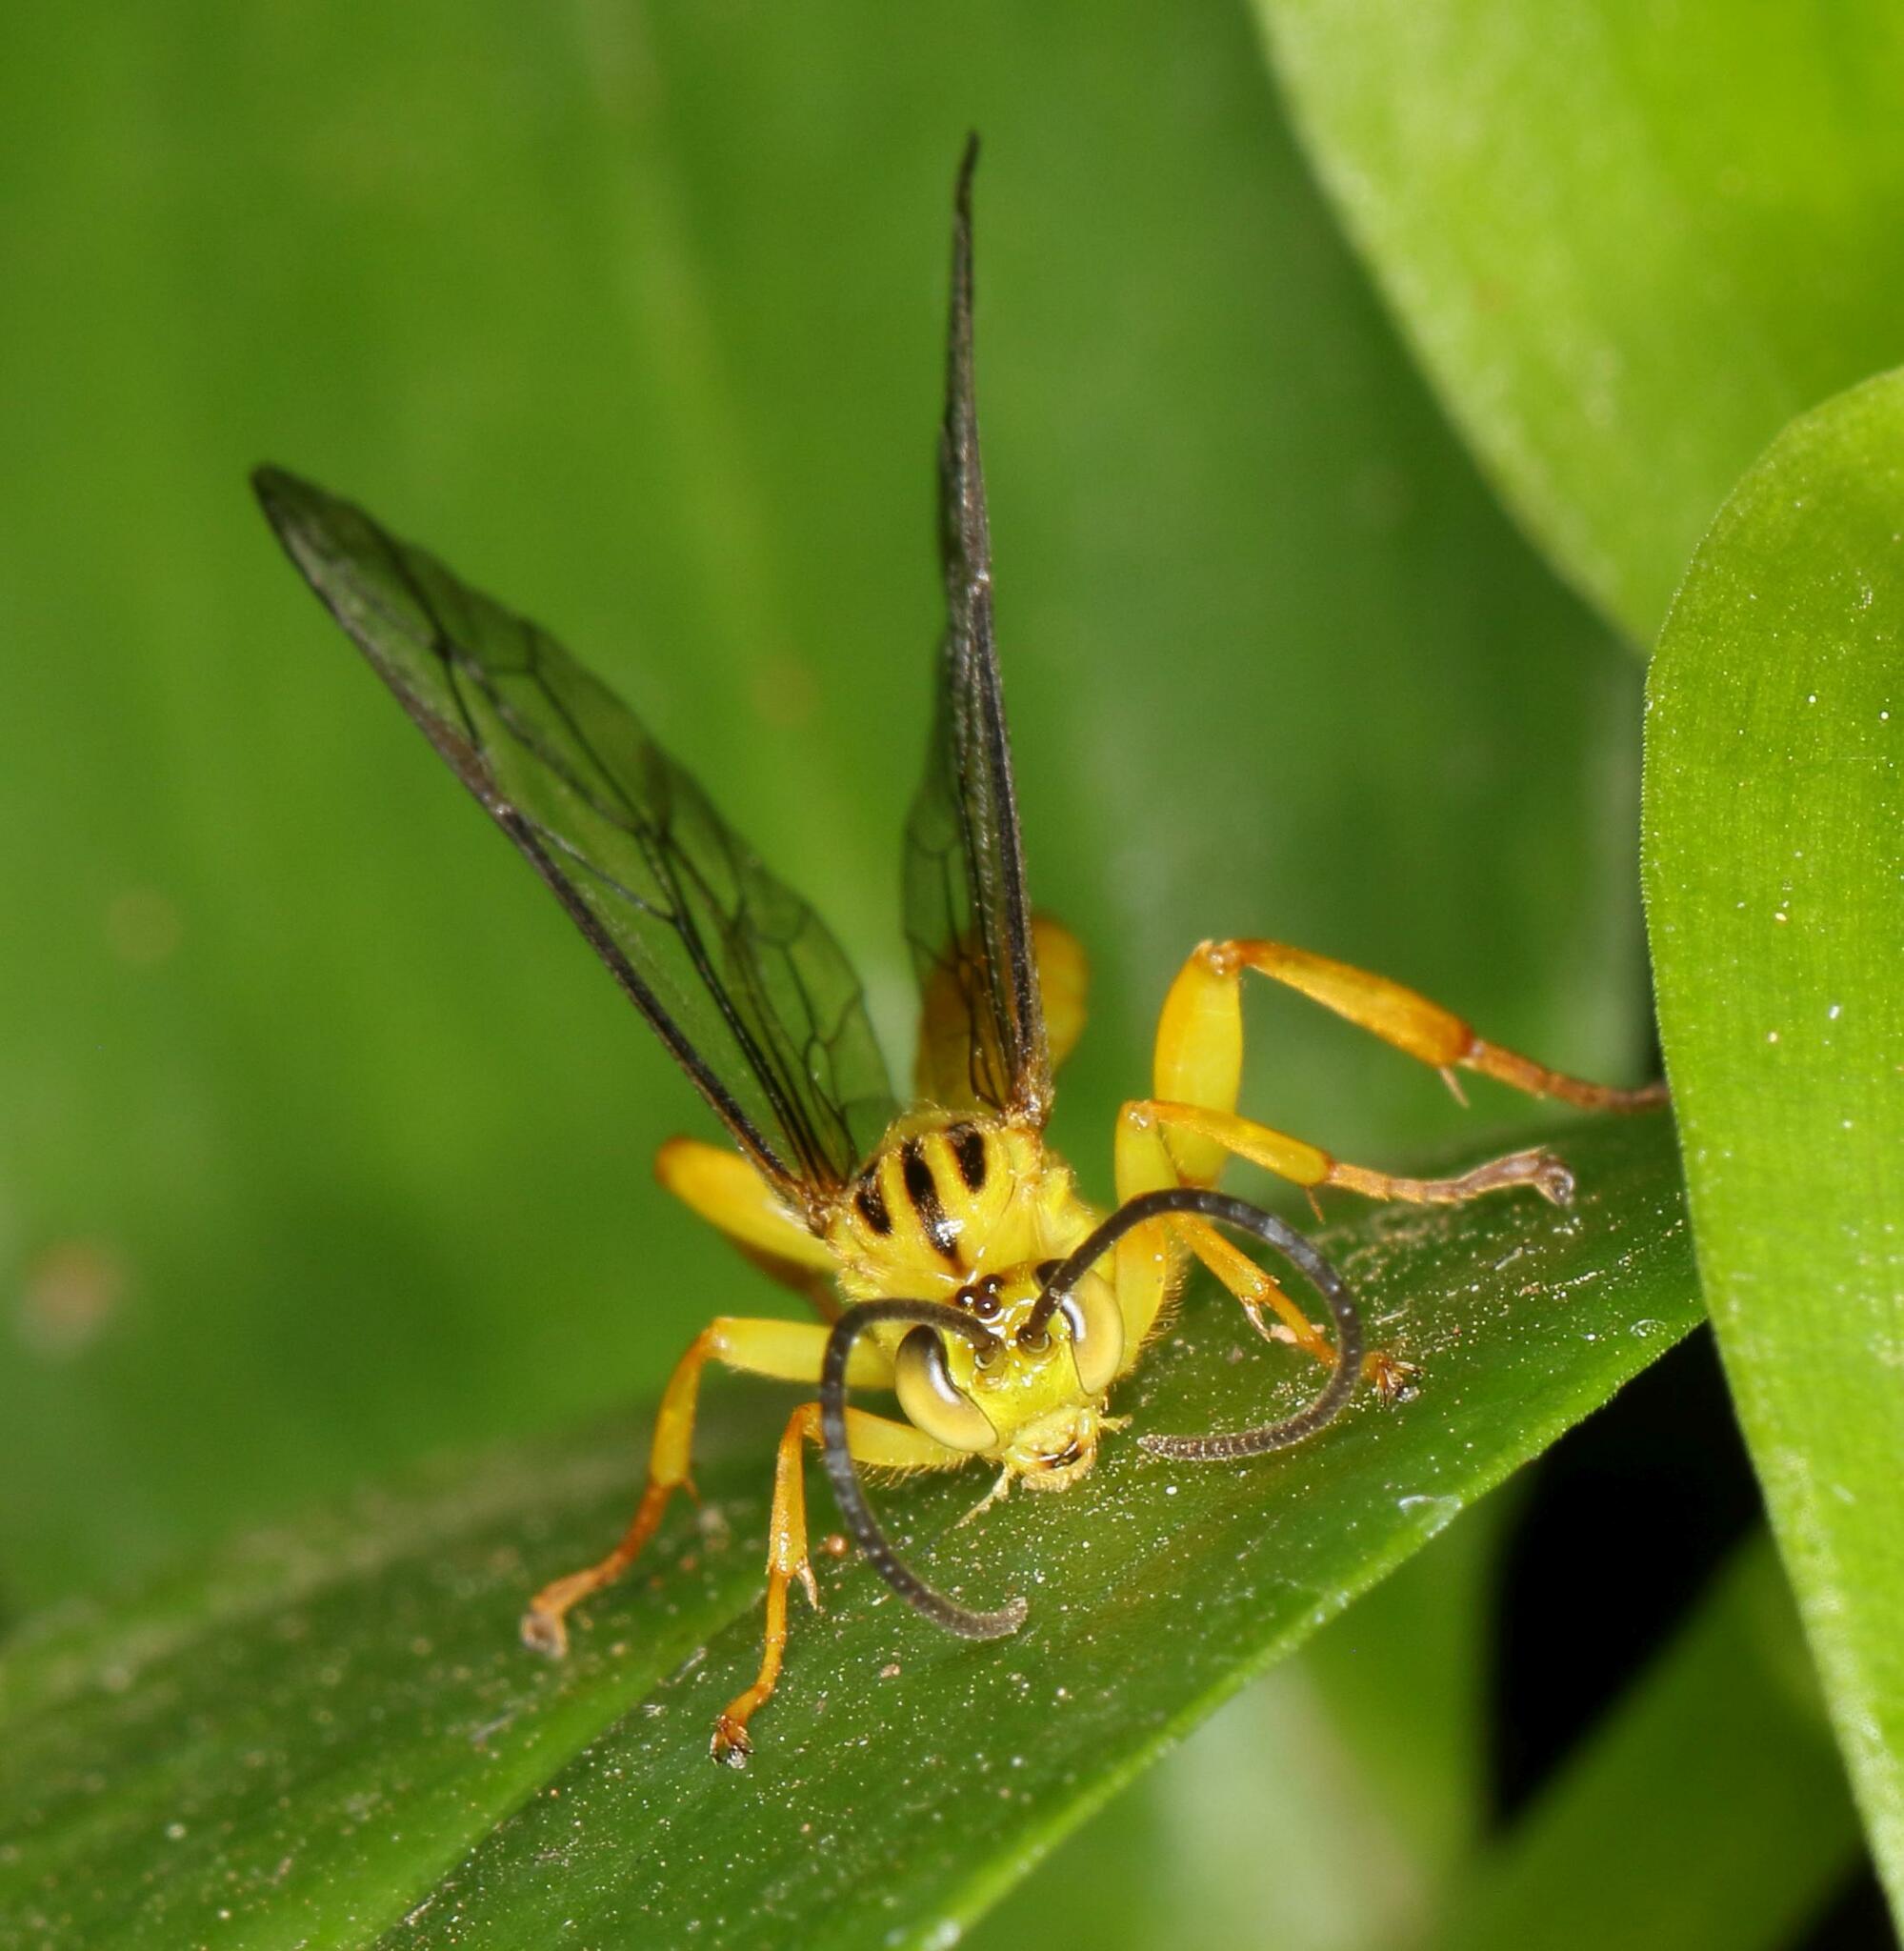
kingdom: Animalia
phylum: Arthropoda
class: Insecta
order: Hymenoptera
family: Ichneumonidae
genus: Theronia
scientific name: Theronia lurida
